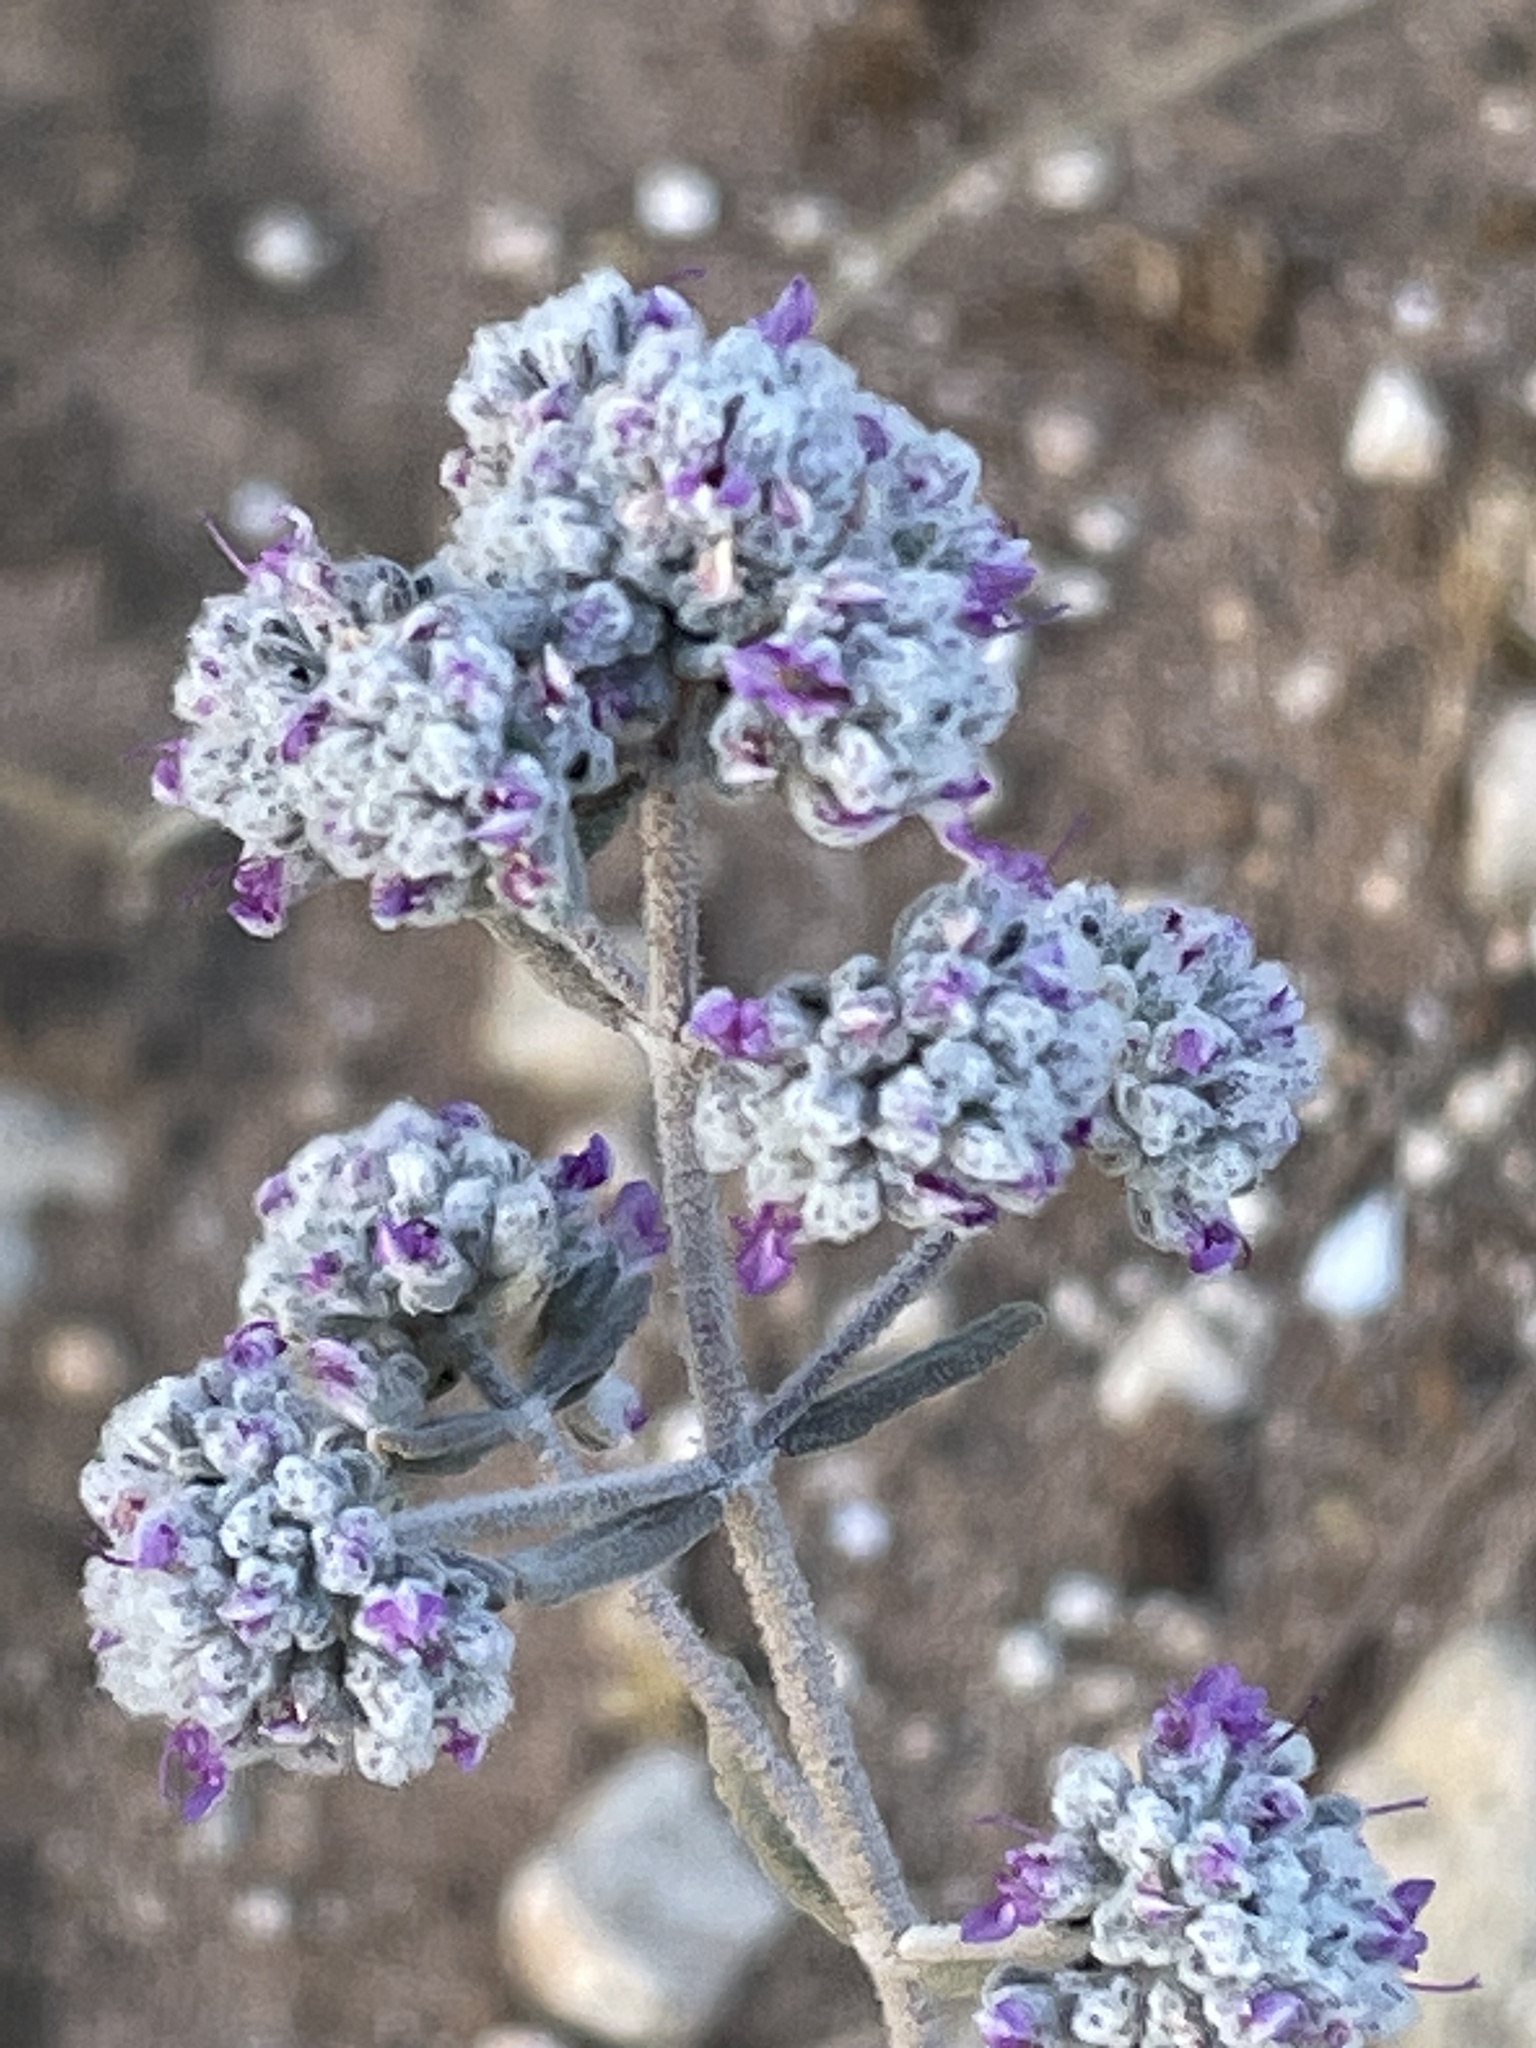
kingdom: Plantae
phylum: Tracheophyta
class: Magnoliopsida
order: Lamiales
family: Lamiaceae
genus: Teucrium
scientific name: Teucrium capitatum
